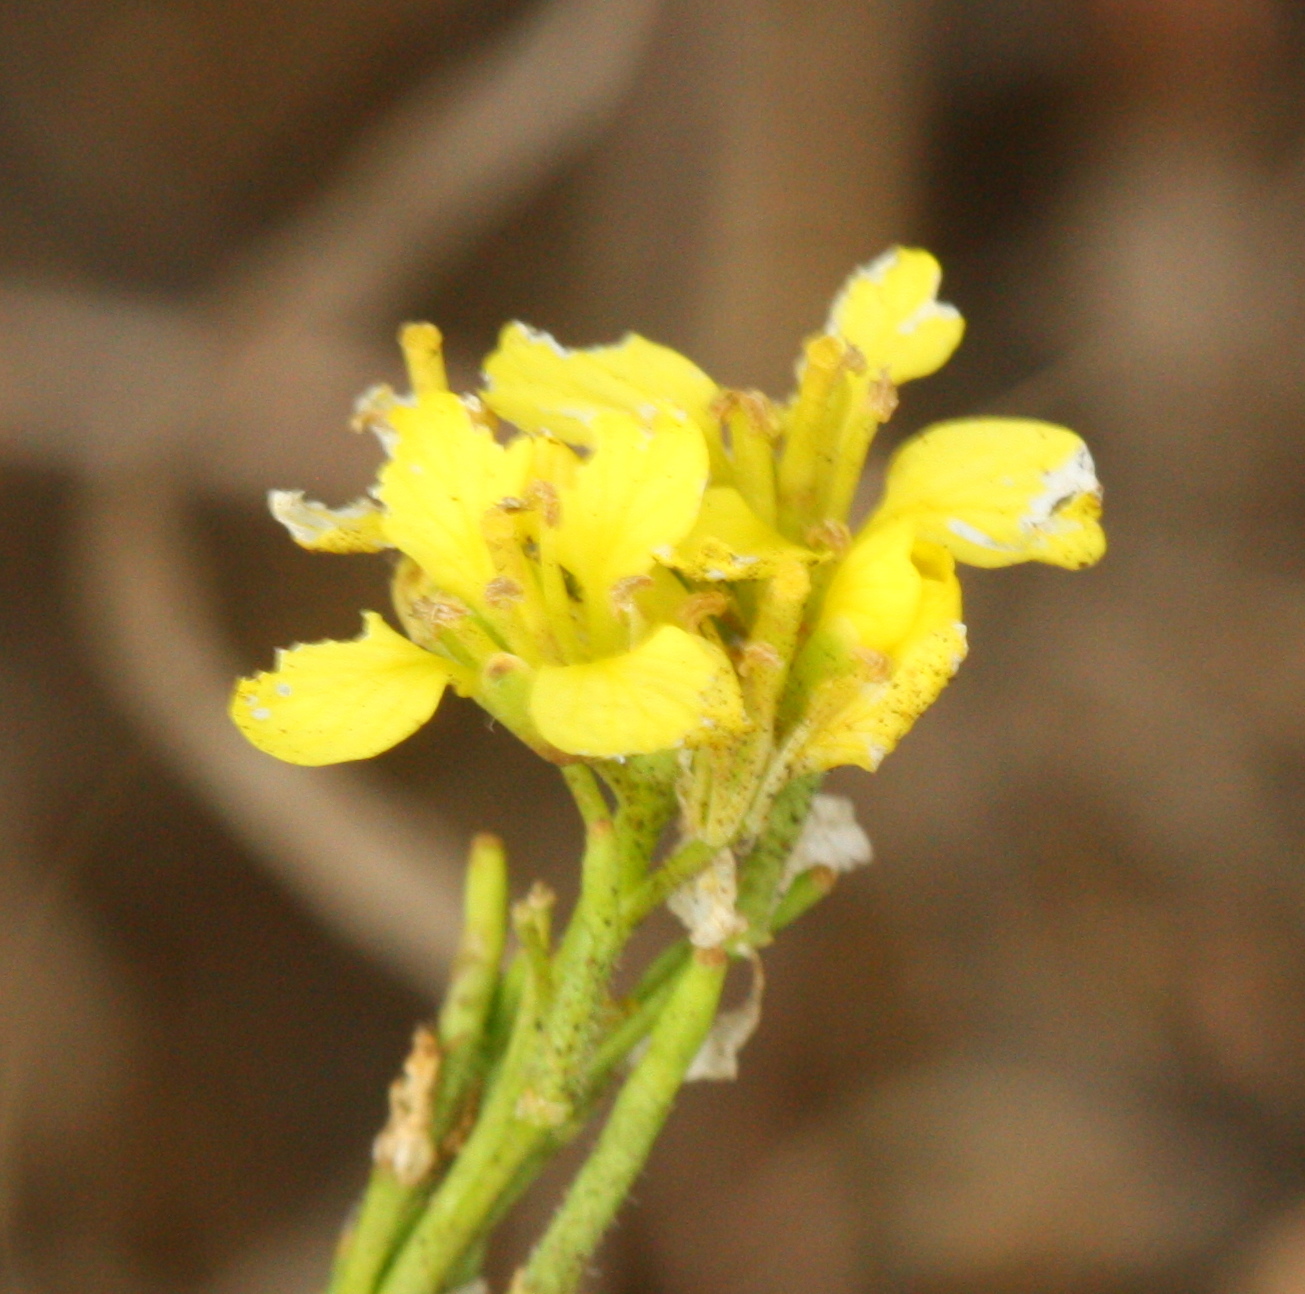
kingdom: Plantae
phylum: Tracheophyta
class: Magnoliopsida
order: Brassicales
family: Brassicaceae
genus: Hirschfeldia
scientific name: Hirschfeldia incana
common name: Hoary mustard
